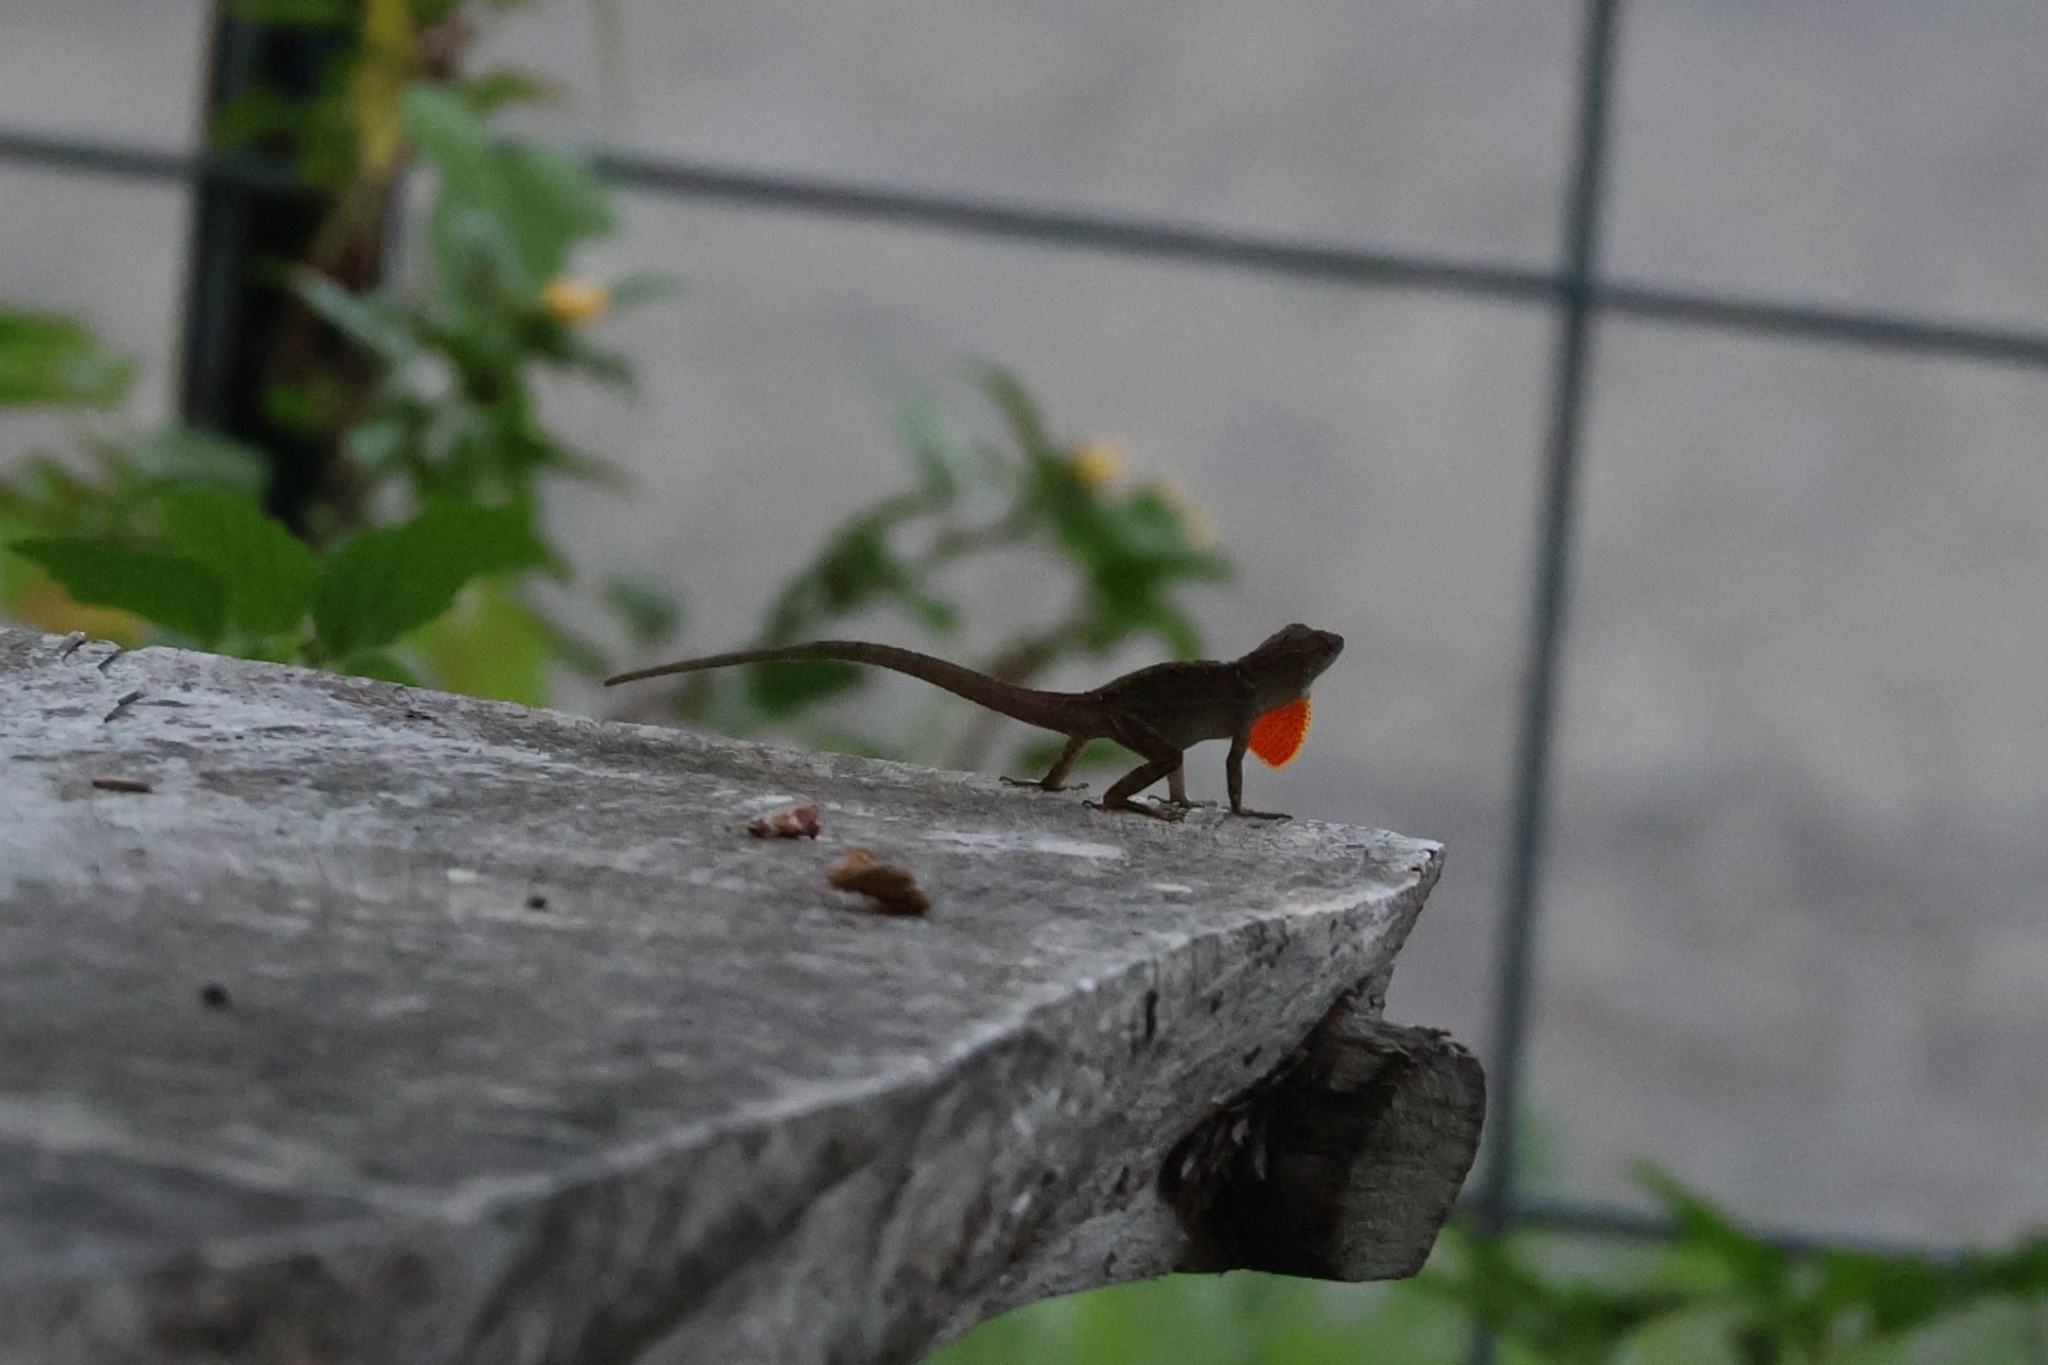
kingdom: Animalia
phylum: Chordata
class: Squamata
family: Dactyloidae
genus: Anolis
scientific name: Anolis sagrei
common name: Brown anole
